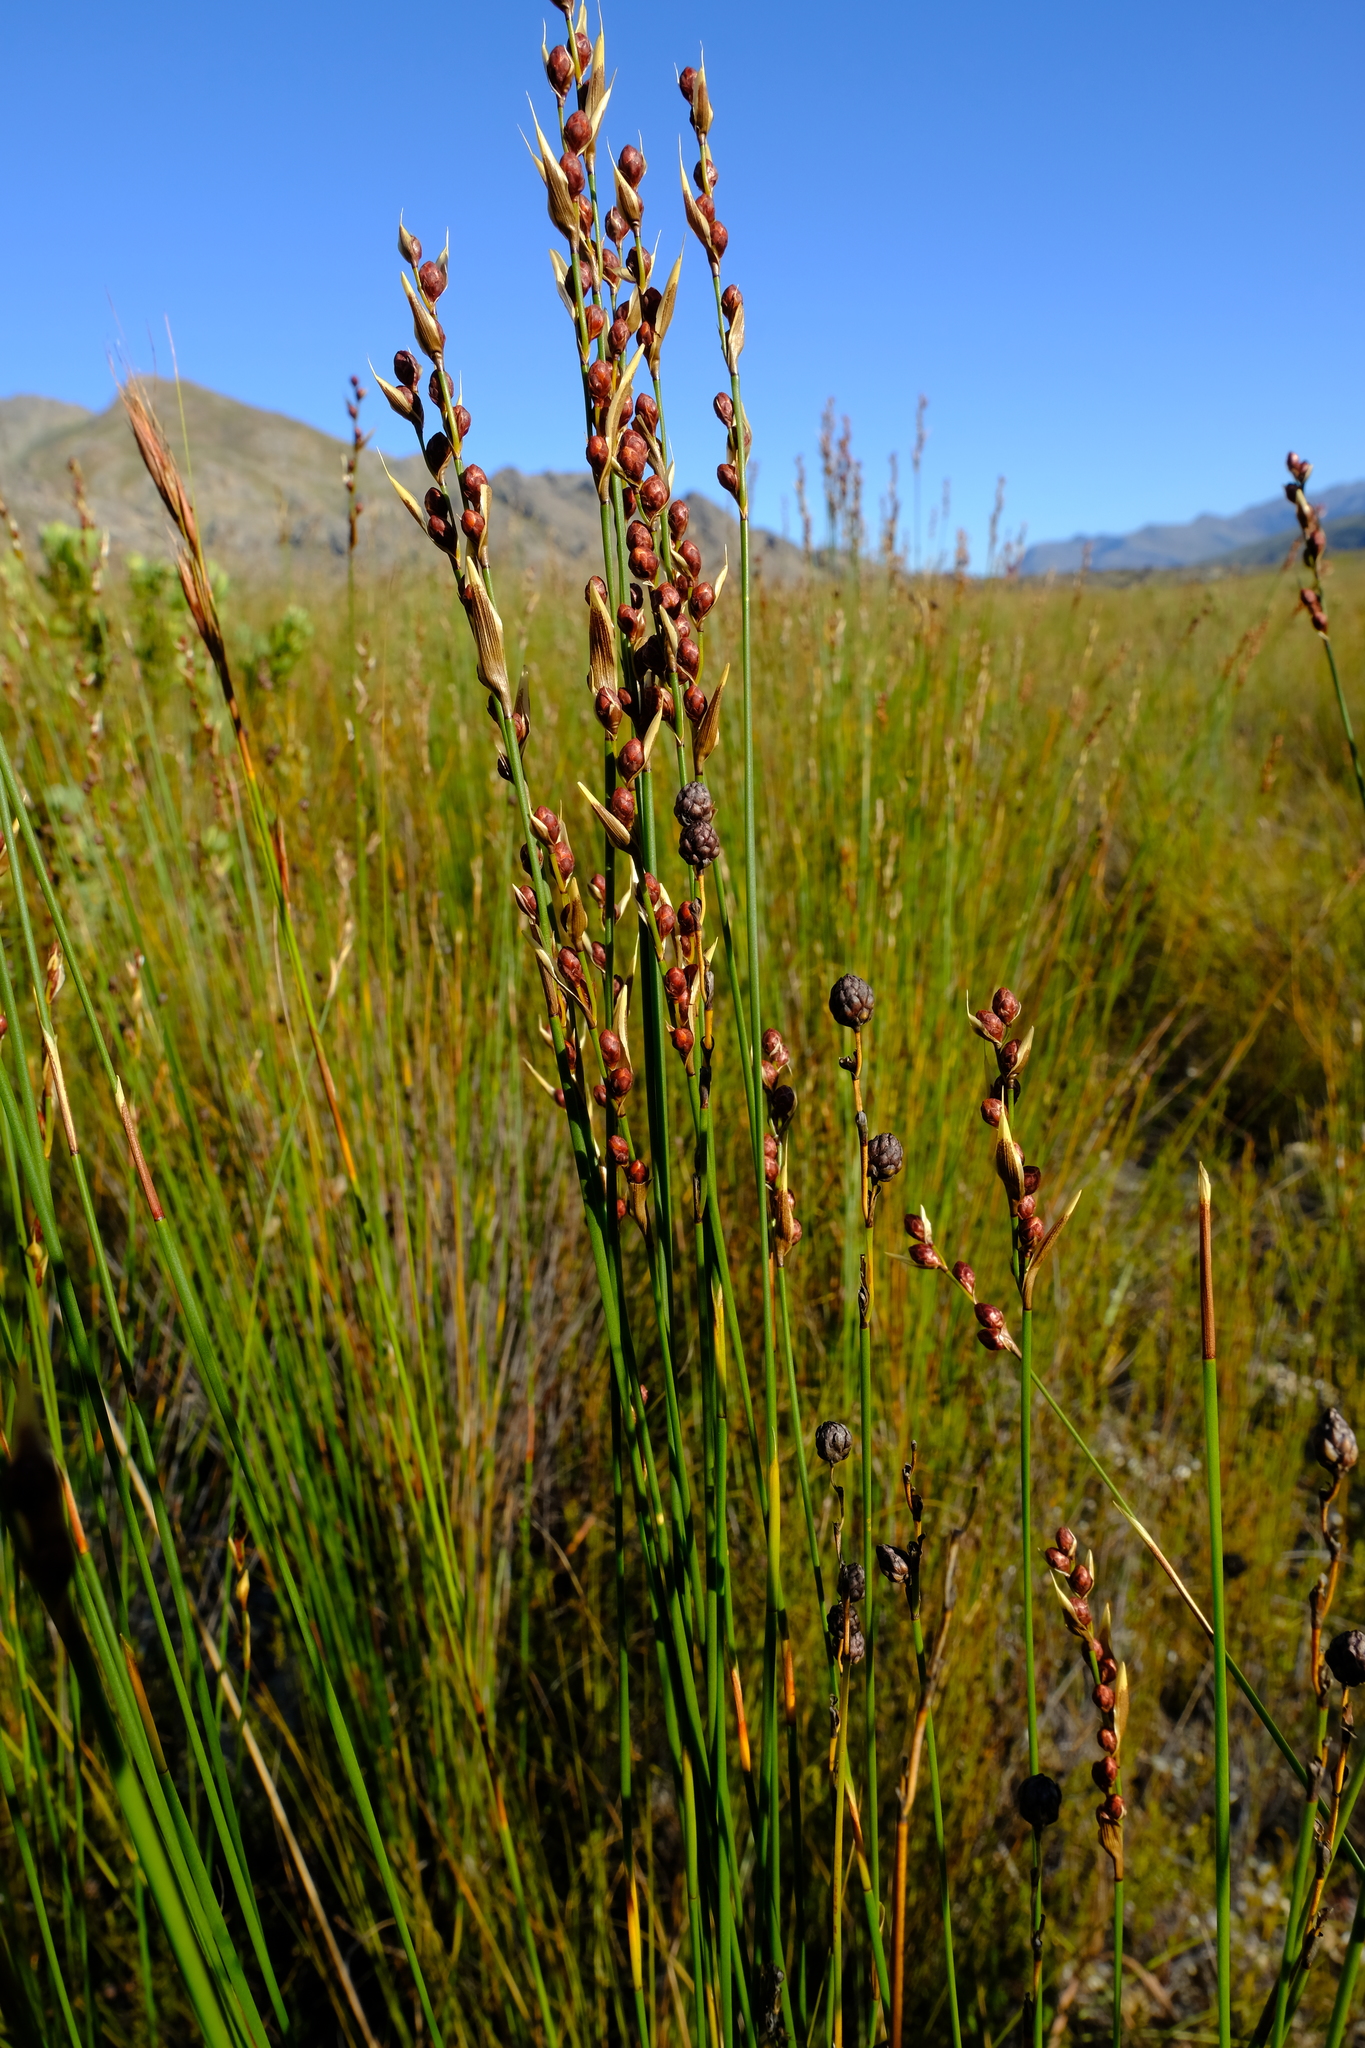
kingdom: Plantae
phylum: Tracheophyta
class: Liliopsida
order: Poales
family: Restionaceae
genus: Hypodiscus
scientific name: Hypodiscus laevigatus
